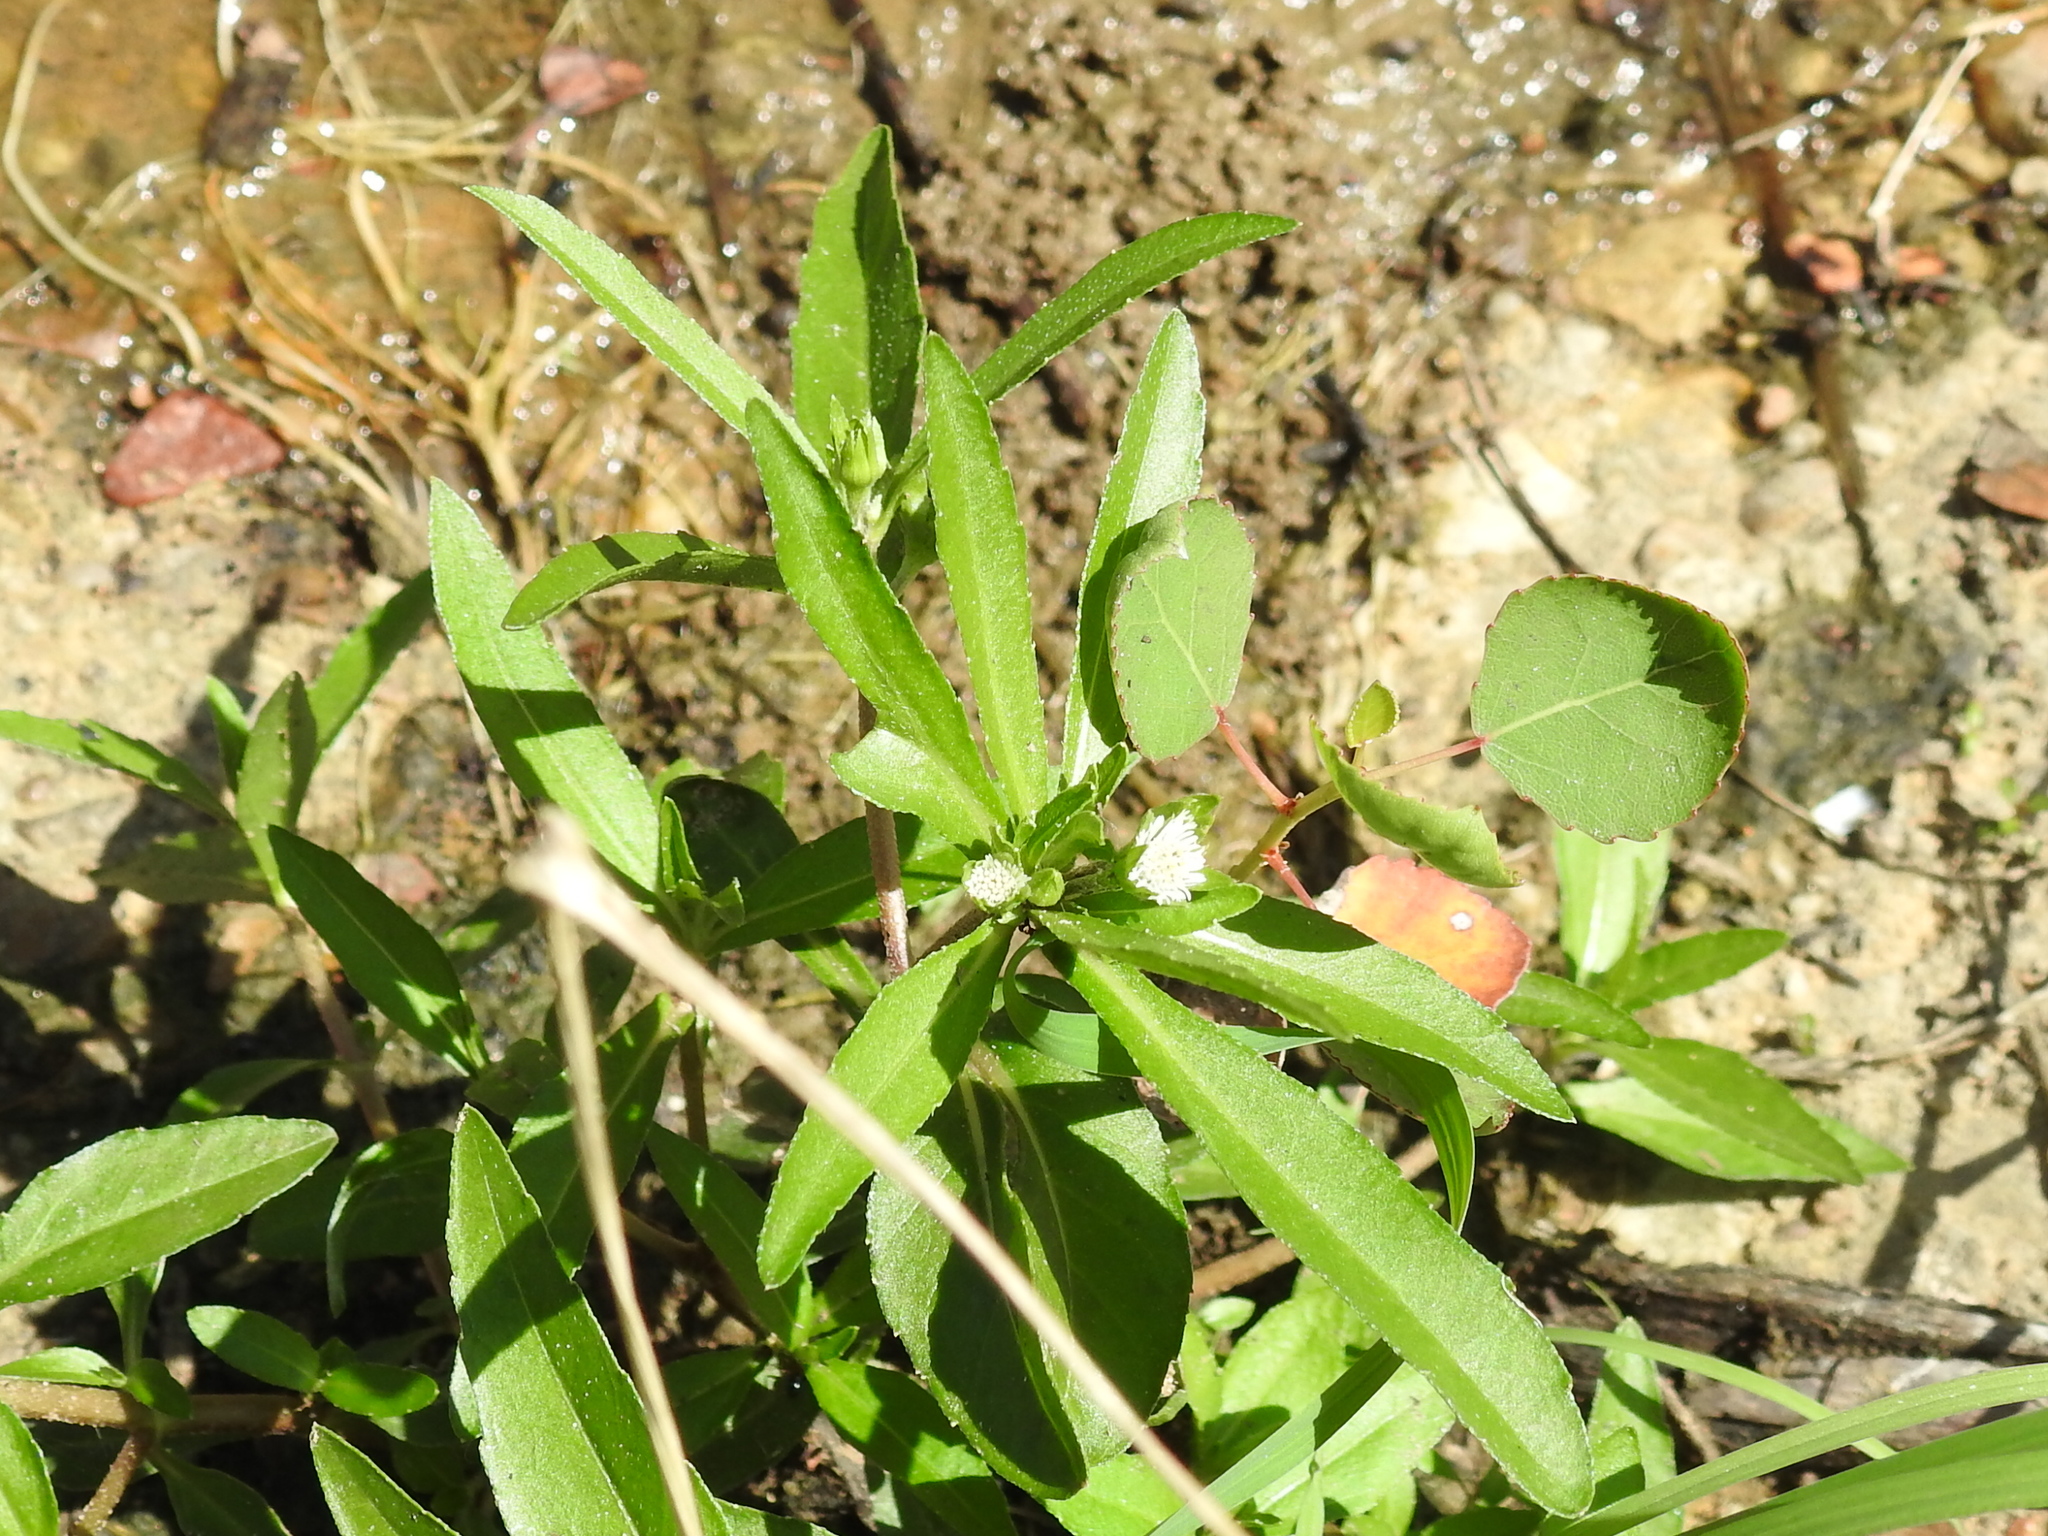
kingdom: Plantae
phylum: Tracheophyta
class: Magnoliopsida
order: Asterales
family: Asteraceae
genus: Eclipta
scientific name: Eclipta prostrata
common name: False daisy
